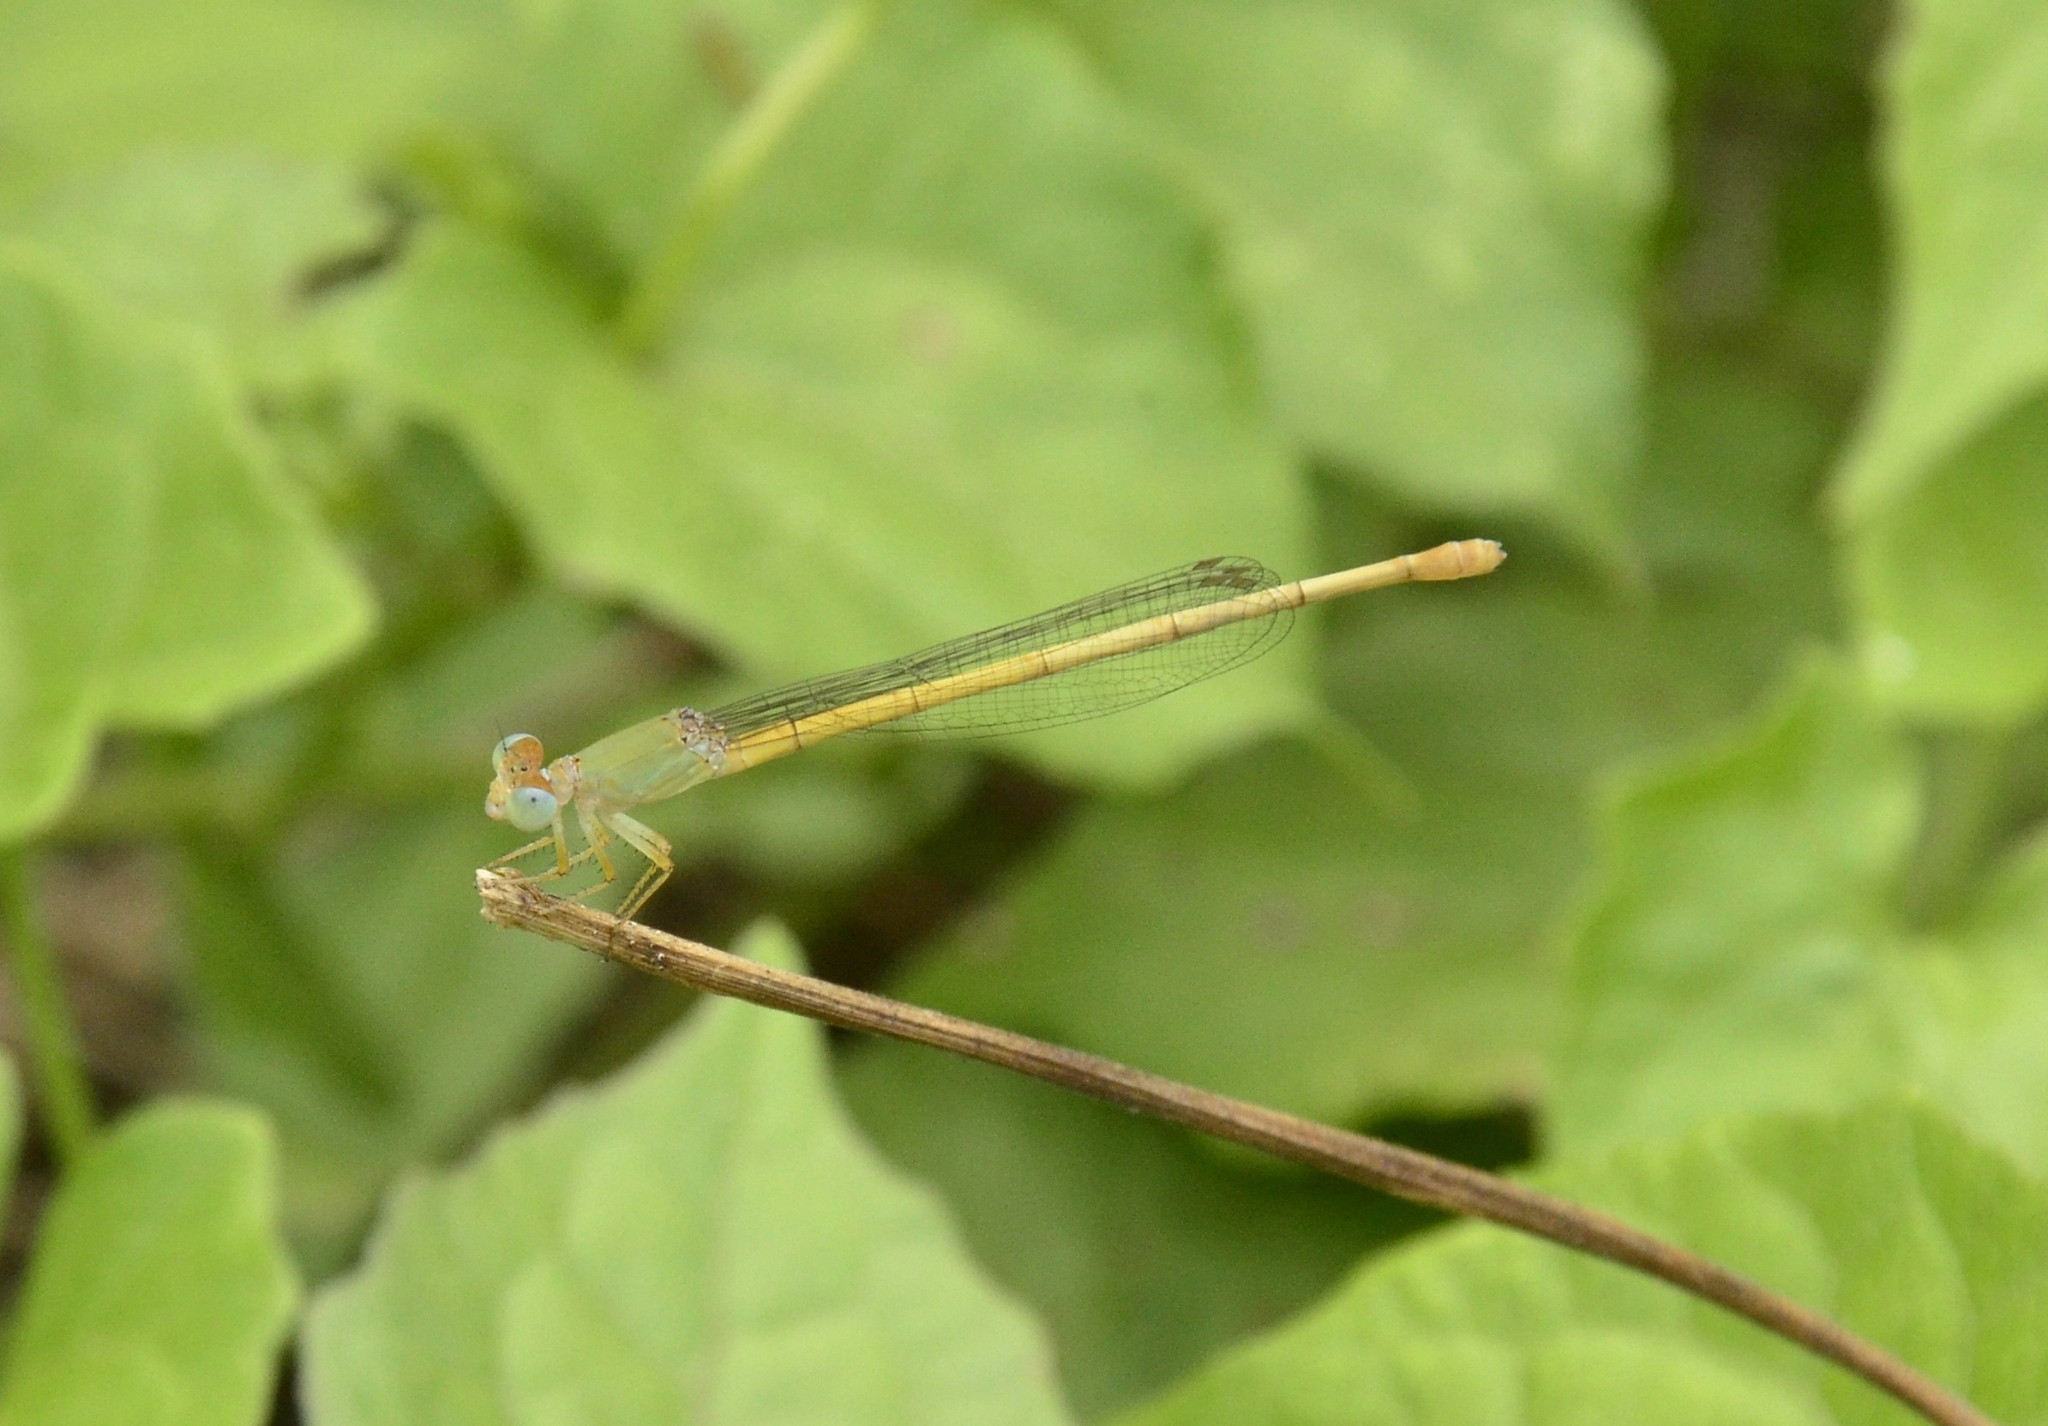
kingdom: Animalia
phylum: Arthropoda
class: Insecta
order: Odonata
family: Coenagrionidae
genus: Ceriagrion
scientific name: Ceriagrion coromandelianum
